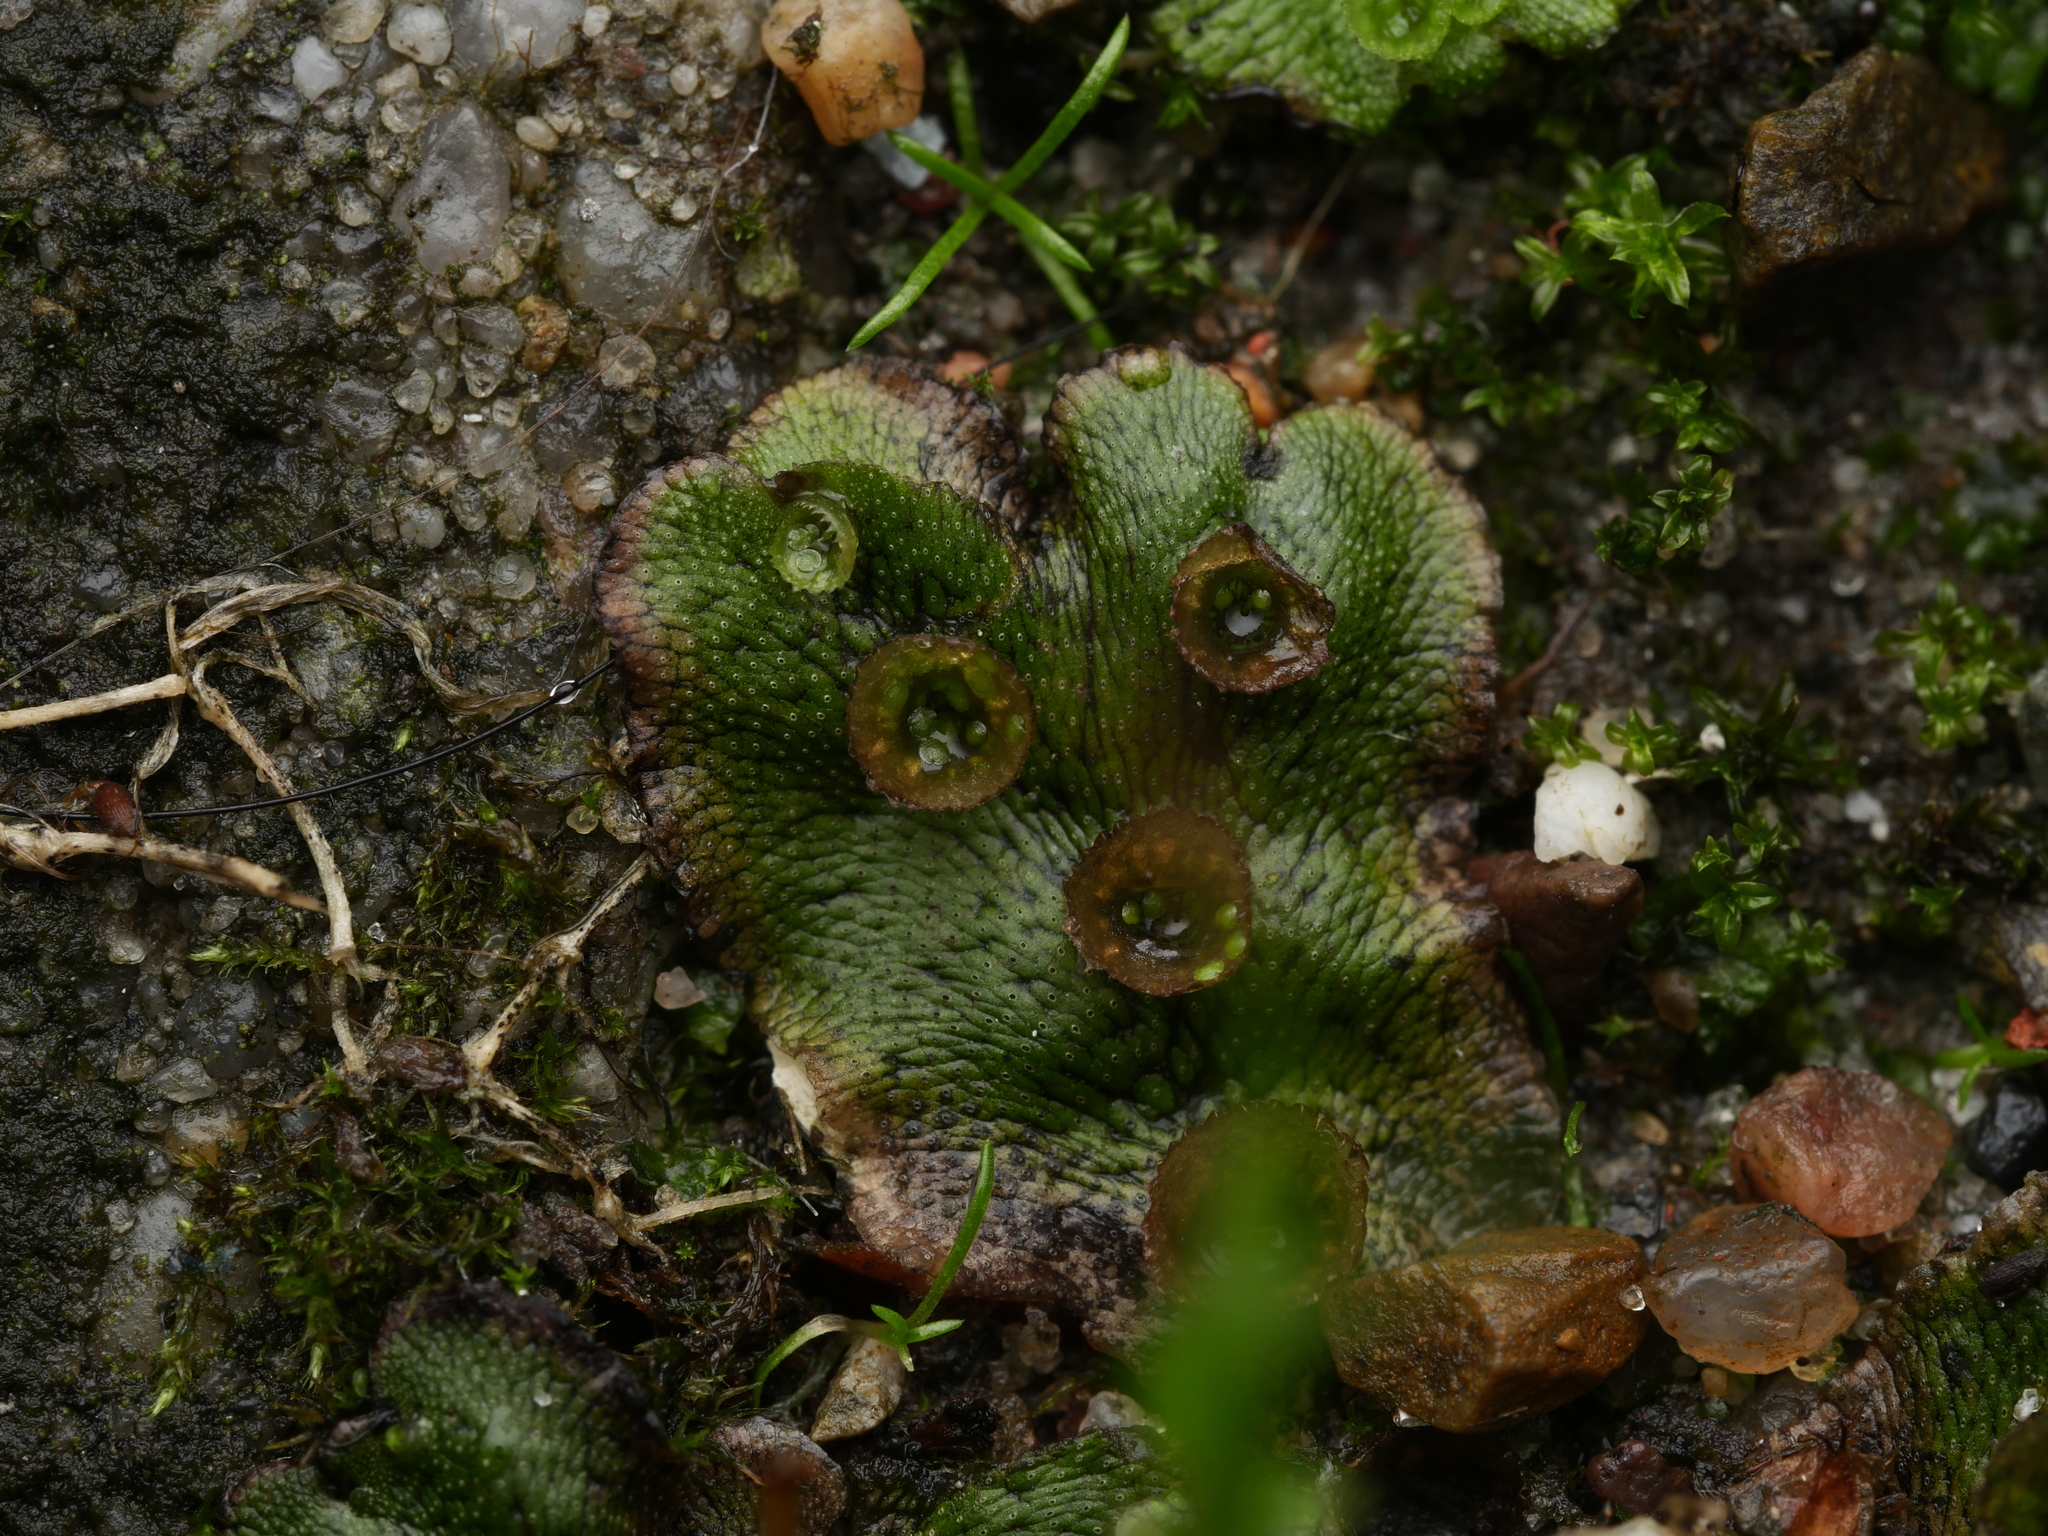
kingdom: Plantae
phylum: Marchantiophyta
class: Marchantiopsida
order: Marchantiales
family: Marchantiaceae
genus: Marchantia
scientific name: Marchantia polymorpha
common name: Common liverwort
